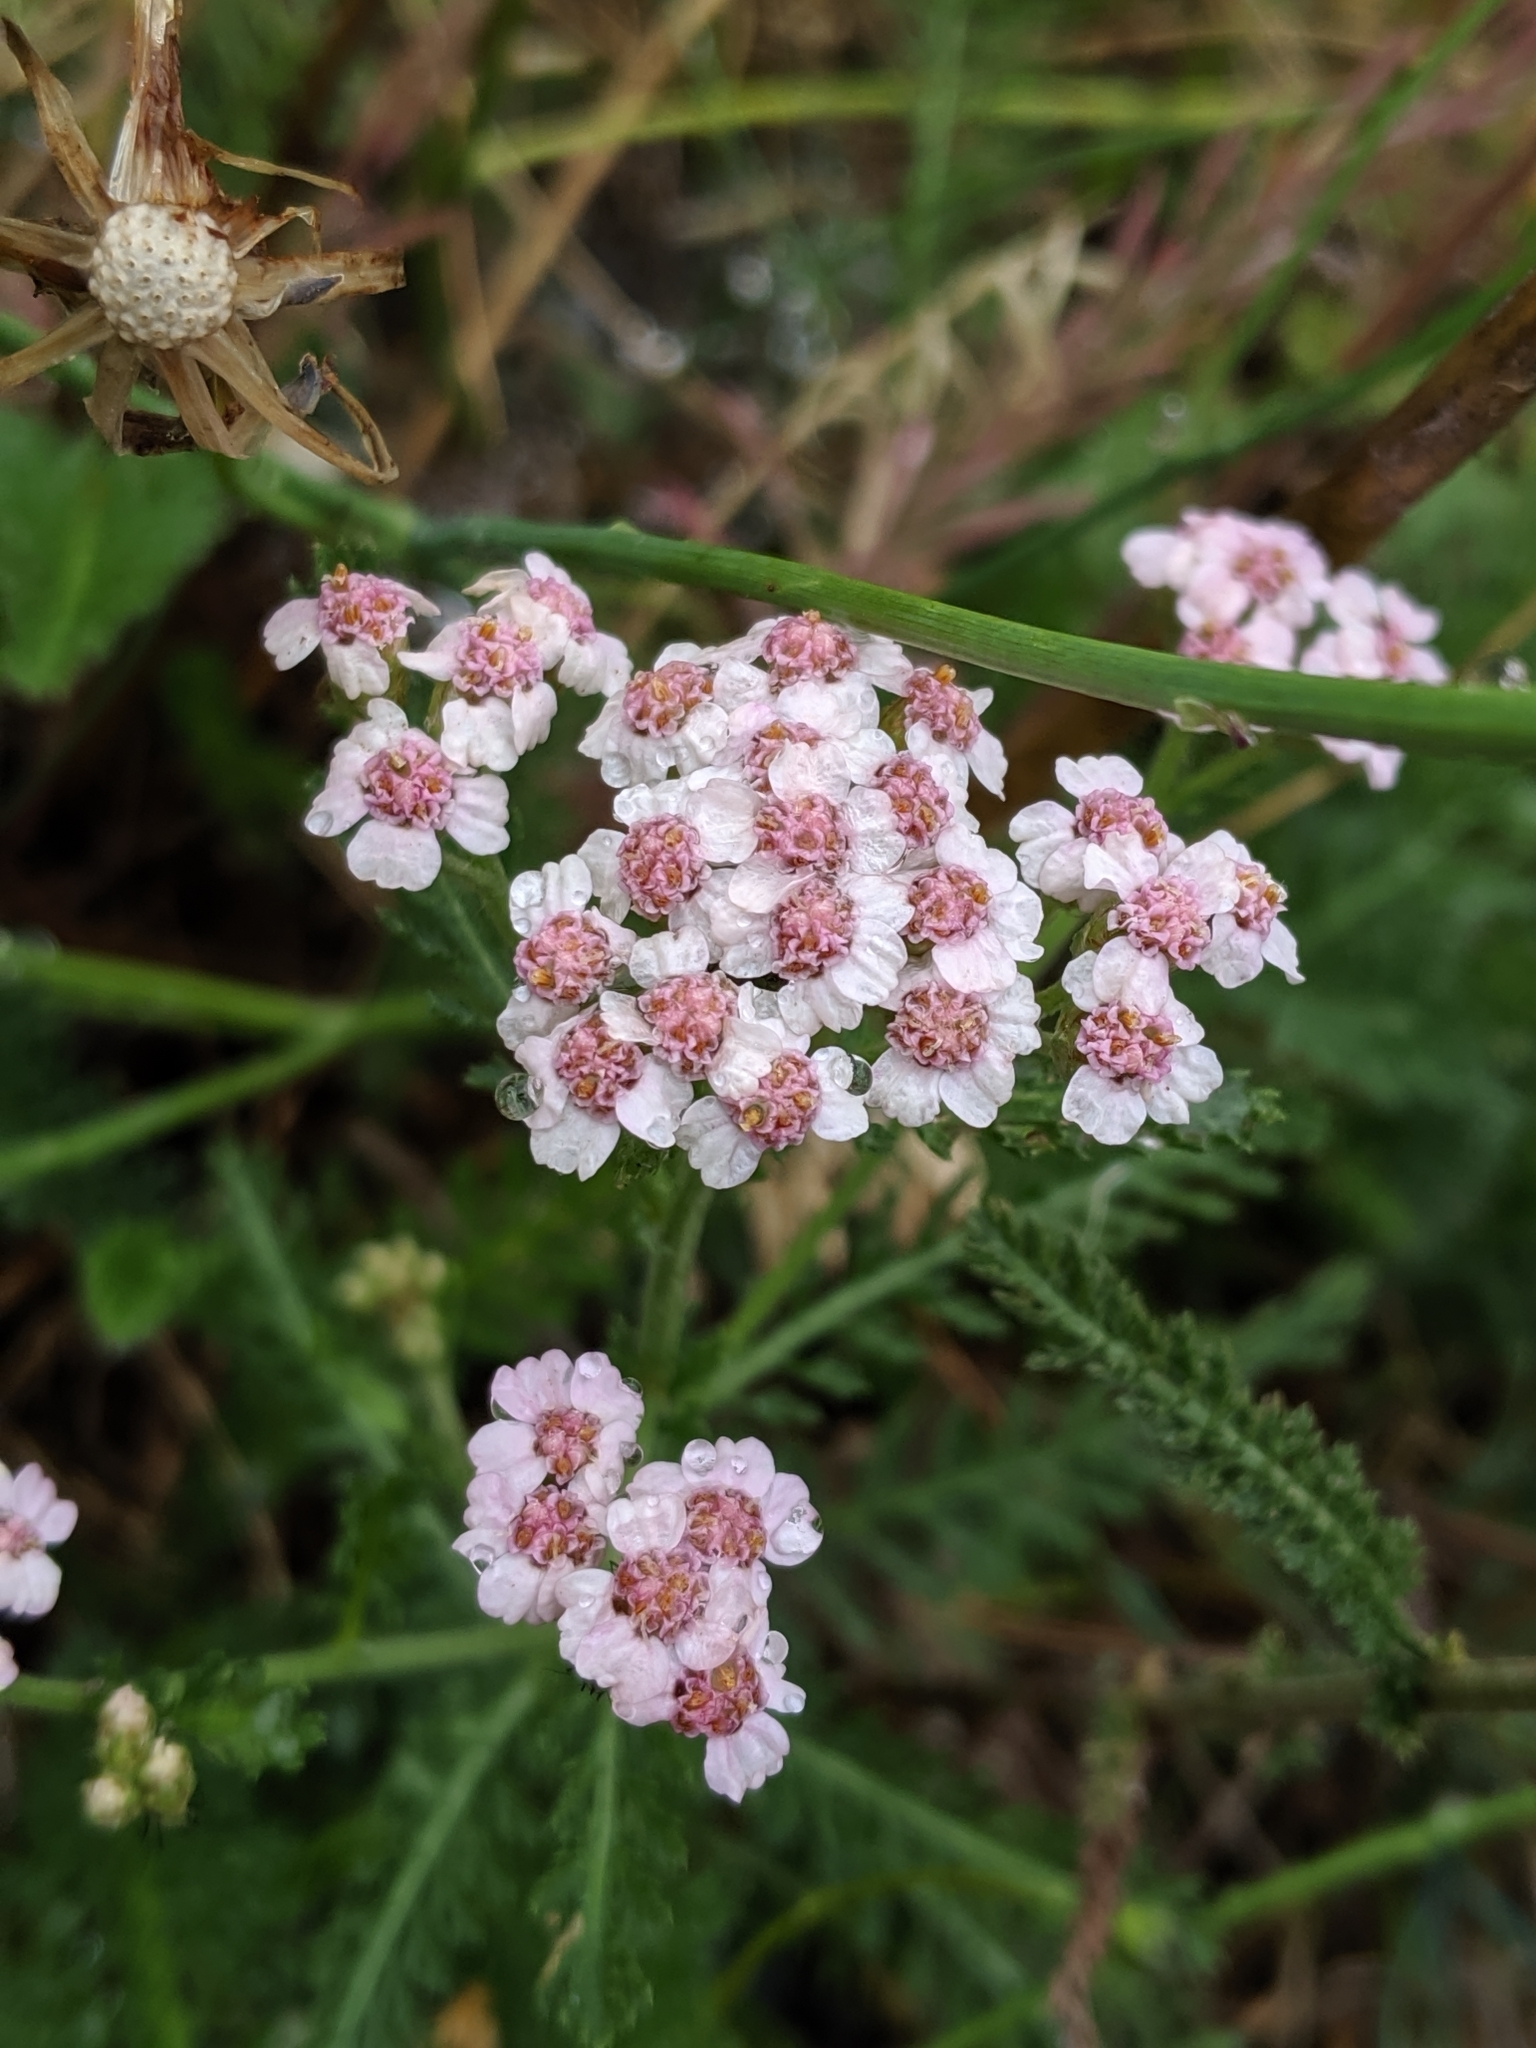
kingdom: Plantae
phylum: Tracheophyta
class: Magnoliopsida
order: Asterales
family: Asteraceae
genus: Achillea
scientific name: Achillea millefolium
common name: Yarrow
